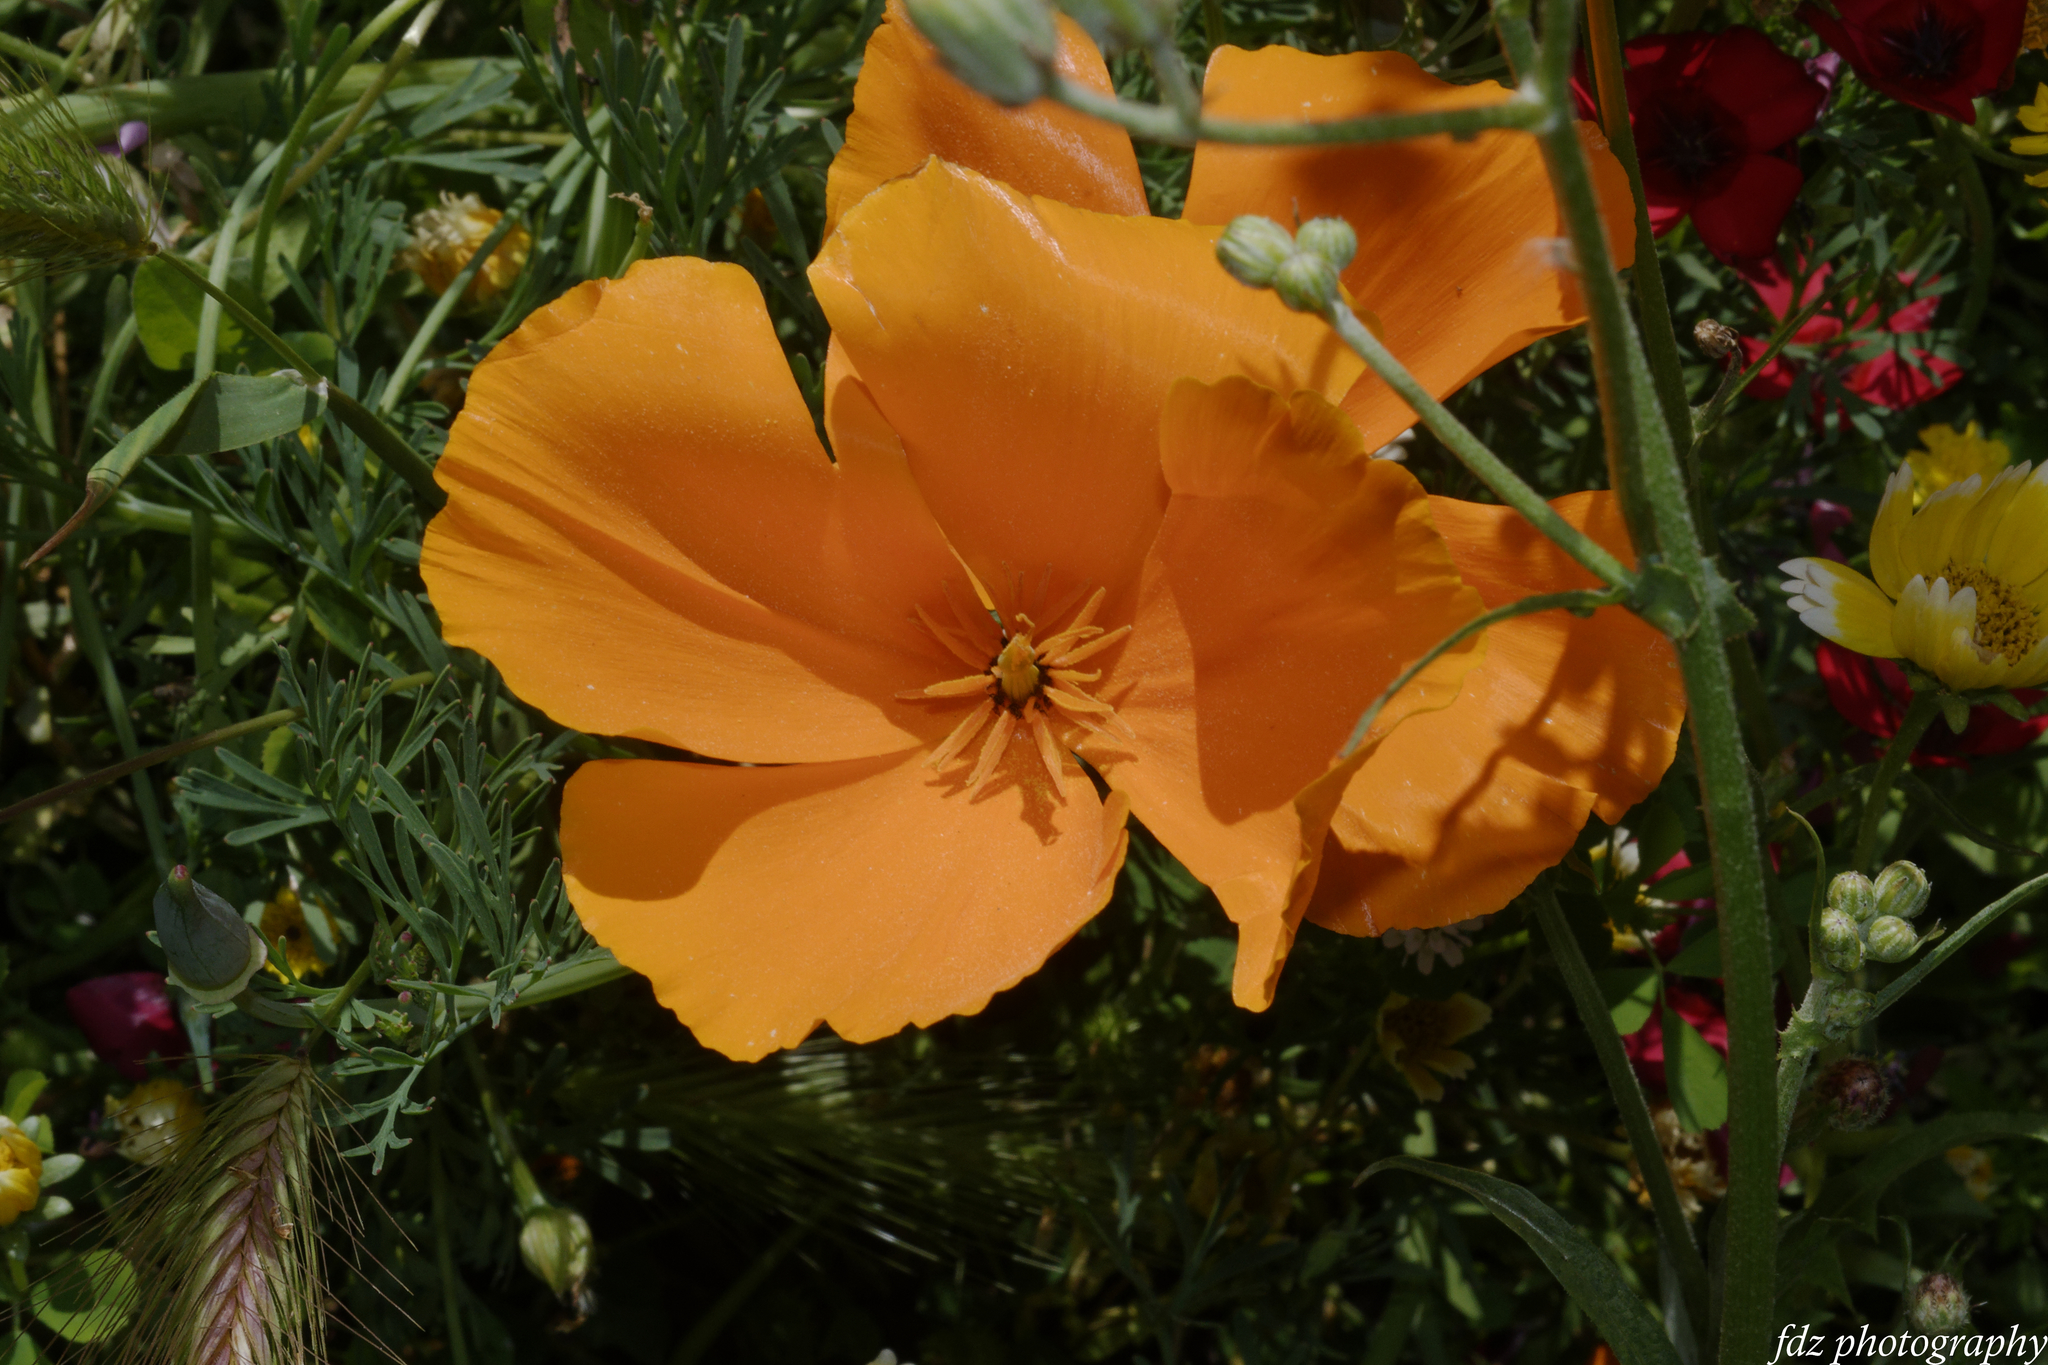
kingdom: Plantae
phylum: Tracheophyta
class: Magnoliopsida
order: Ranunculales
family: Papaveraceae
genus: Eschscholzia
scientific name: Eschscholzia californica
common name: California poppy
